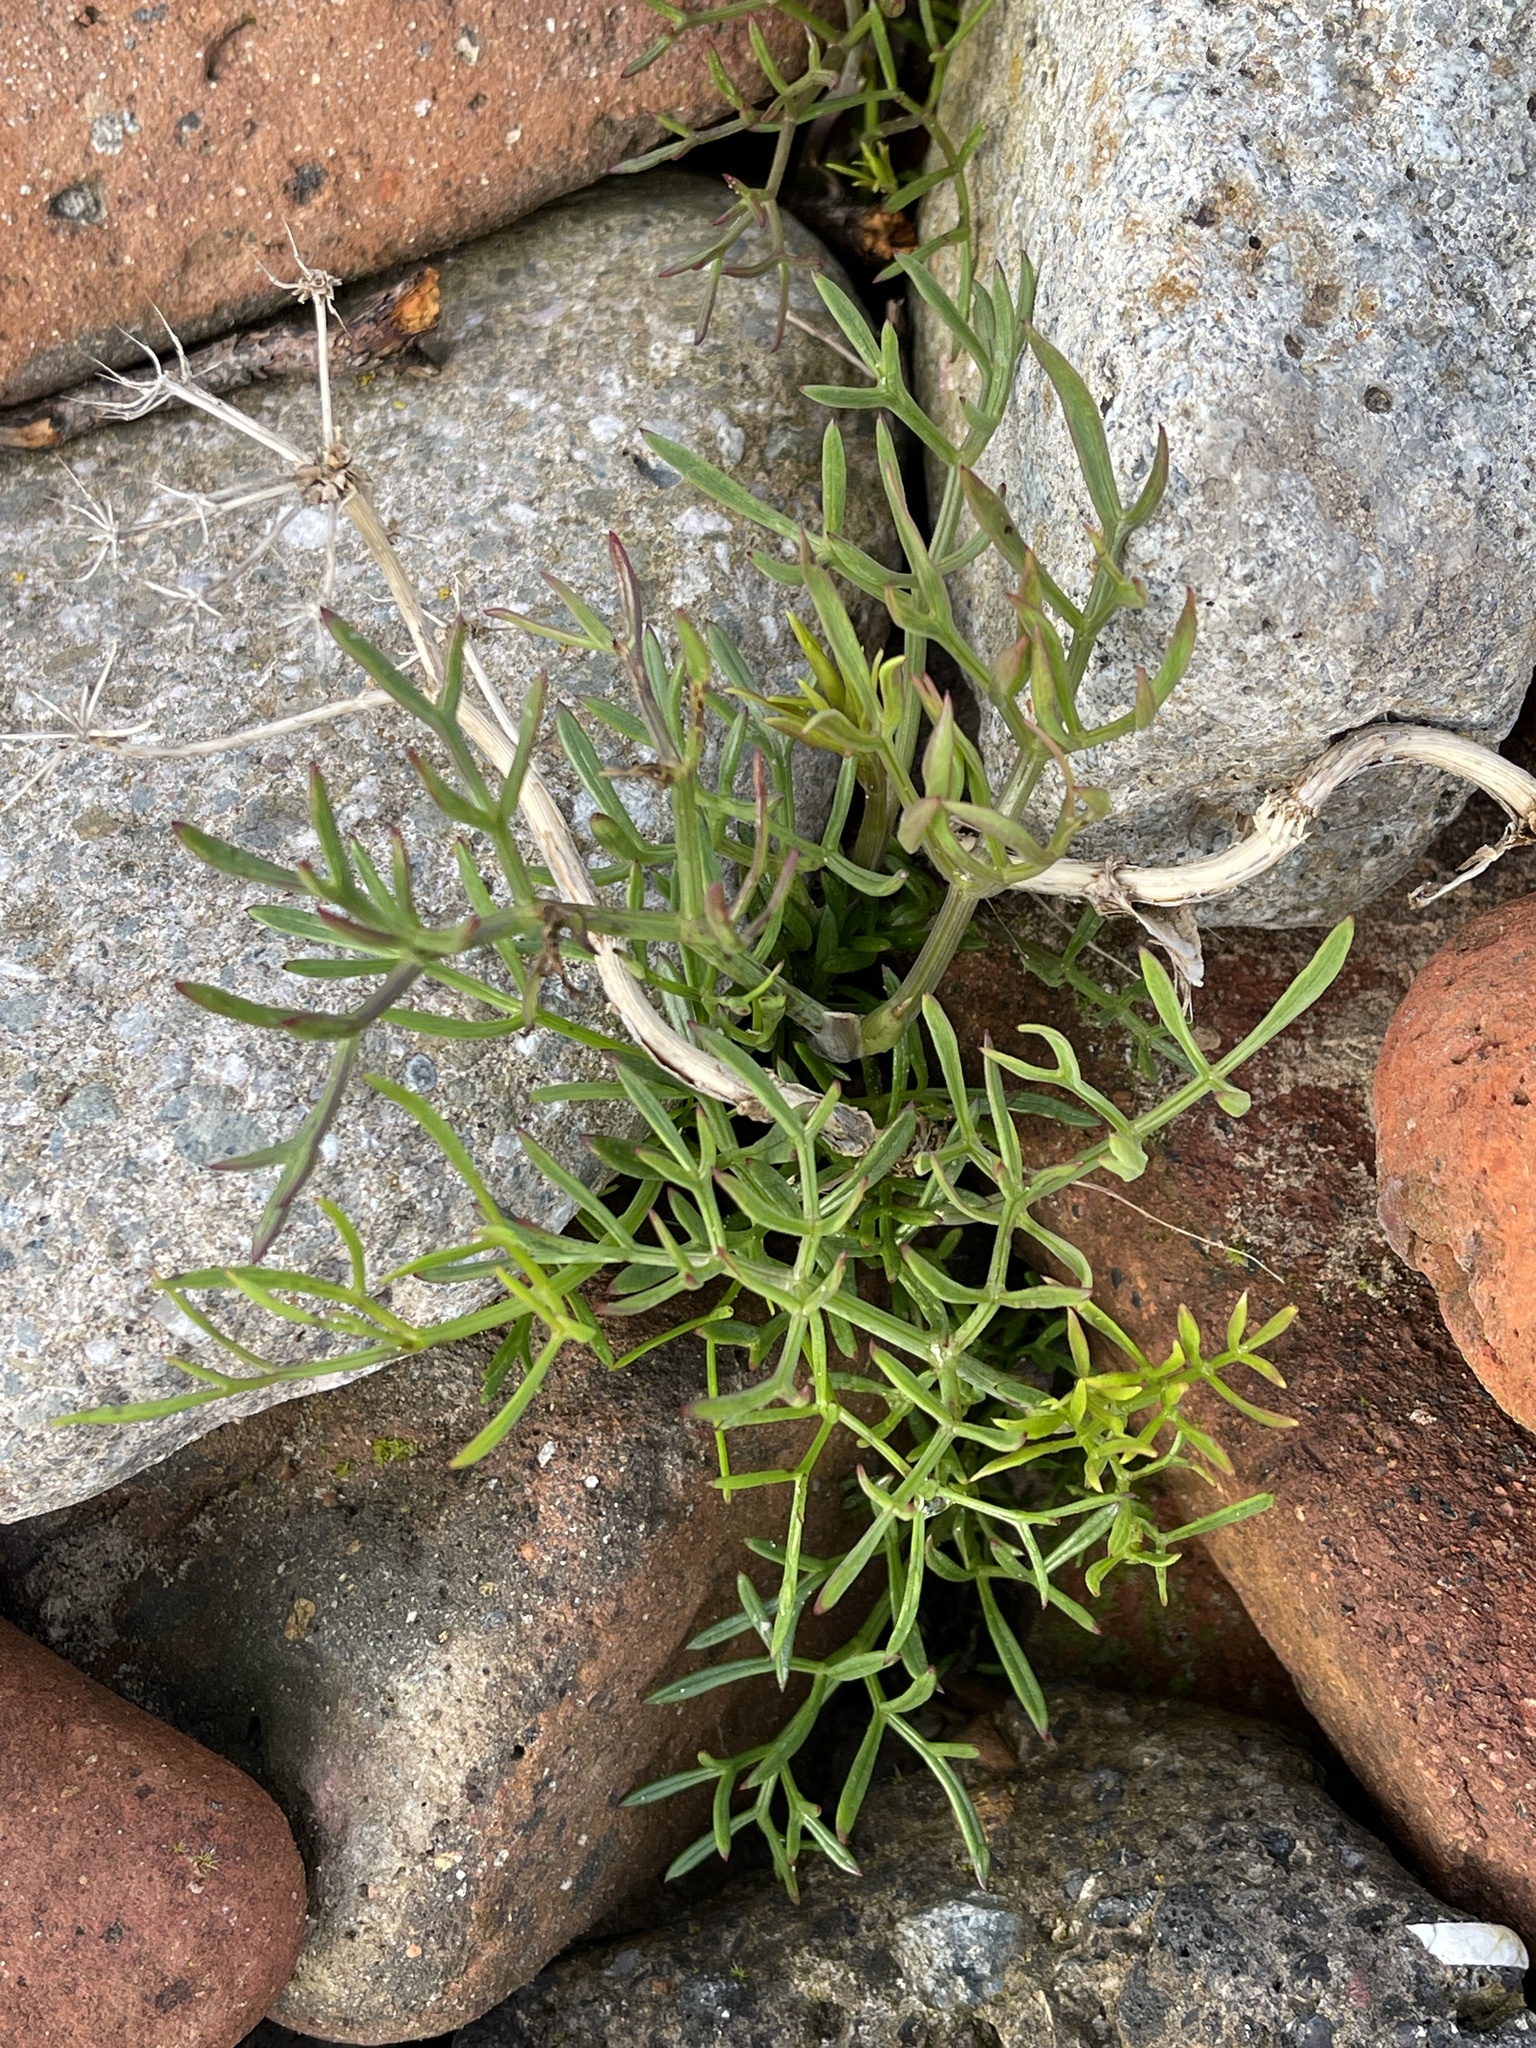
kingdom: Plantae
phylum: Tracheophyta
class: Magnoliopsida
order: Apiales
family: Apiaceae
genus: Crithmum
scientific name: Crithmum maritimum
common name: Rock samphire
